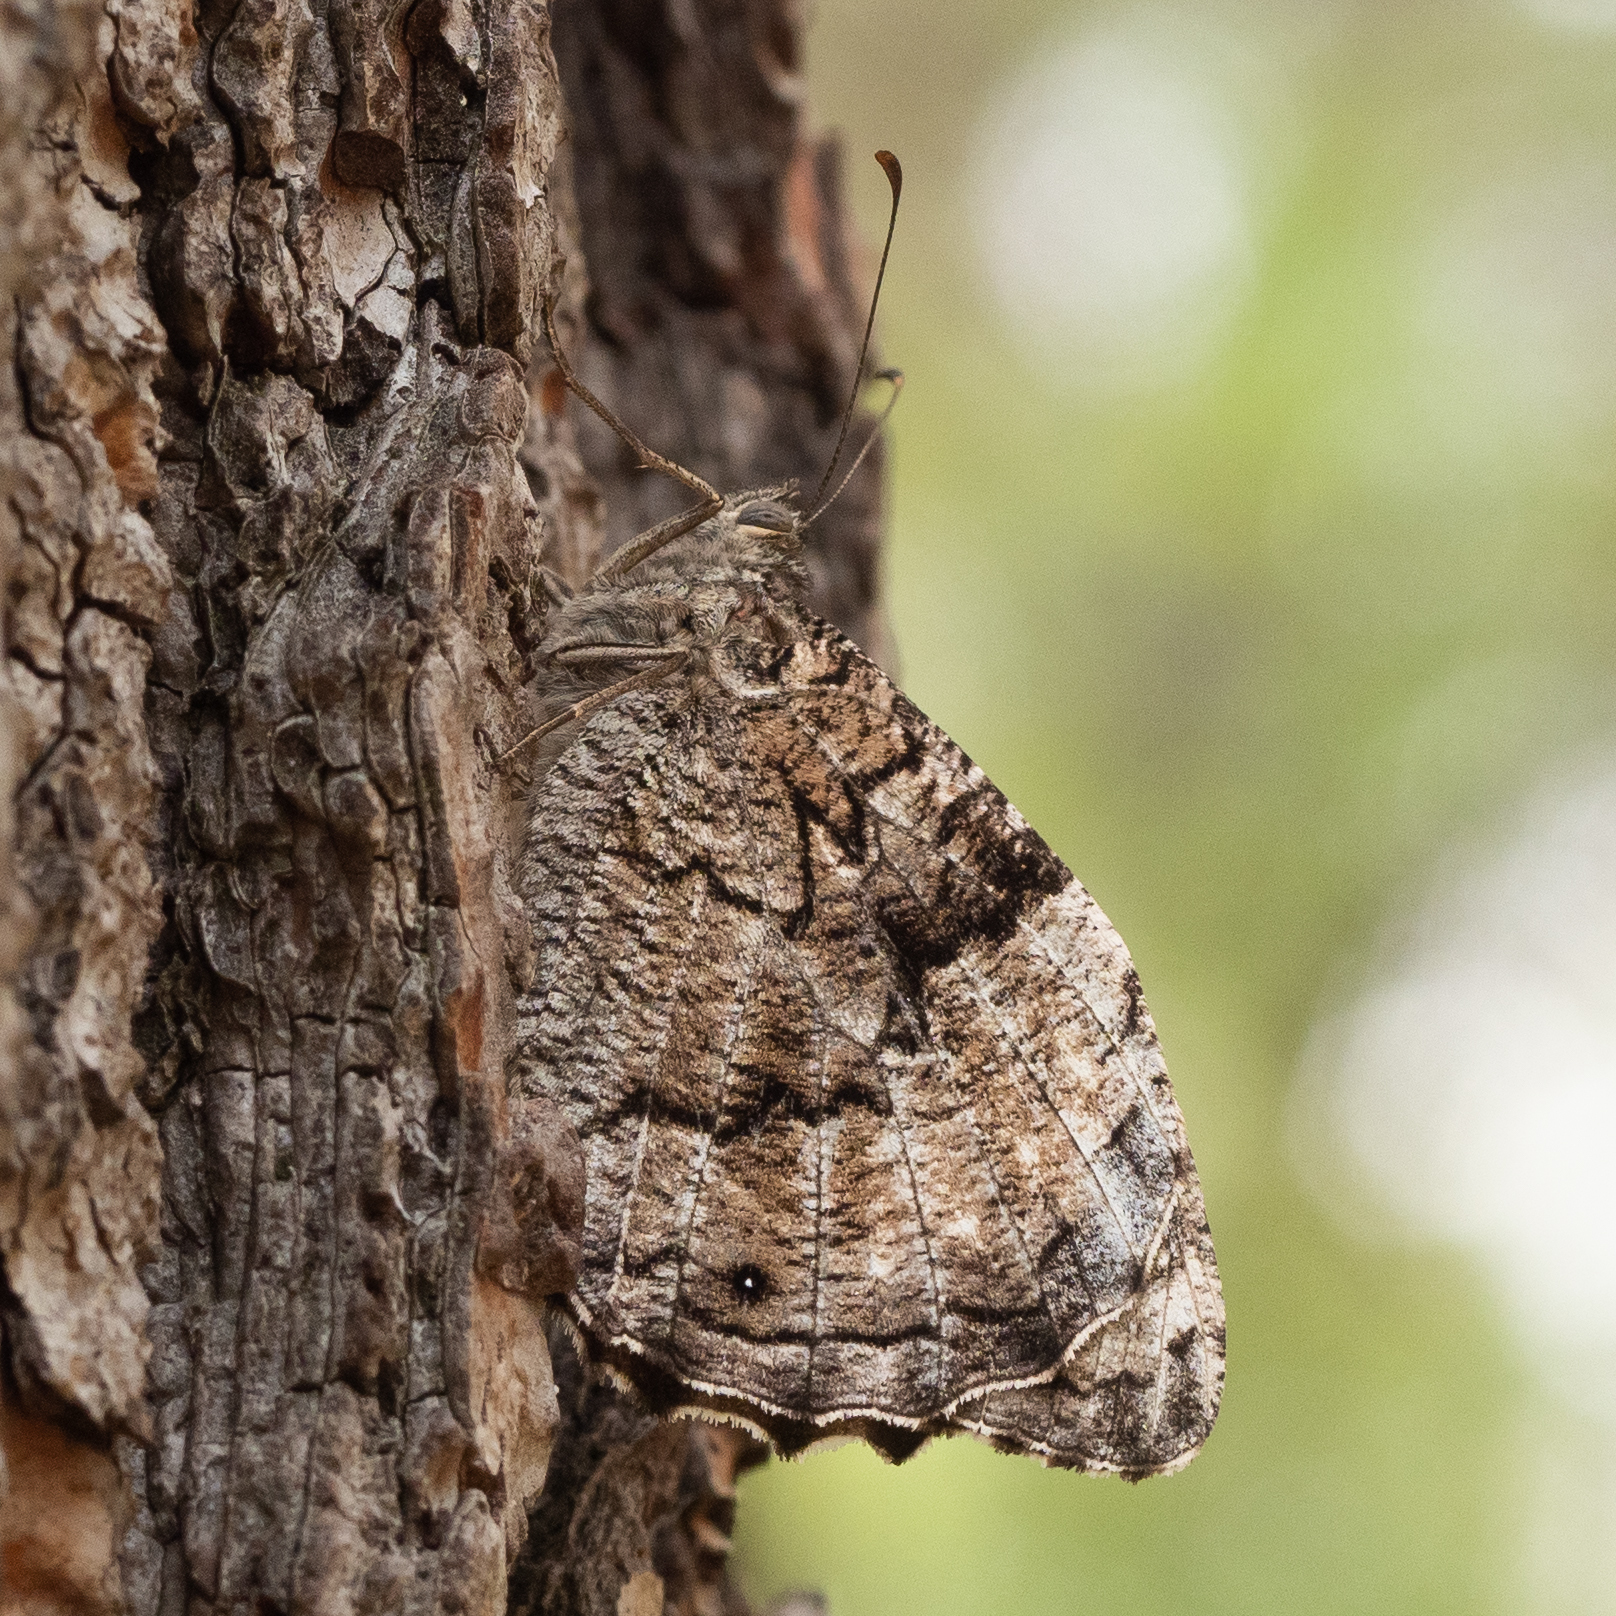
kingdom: Animalia
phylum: Arthropoda
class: Insecta
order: Lepidoptera
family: Nymphalidae
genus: Hipparchia
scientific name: Hipparchia syriaca
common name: Eastern rock grayling
